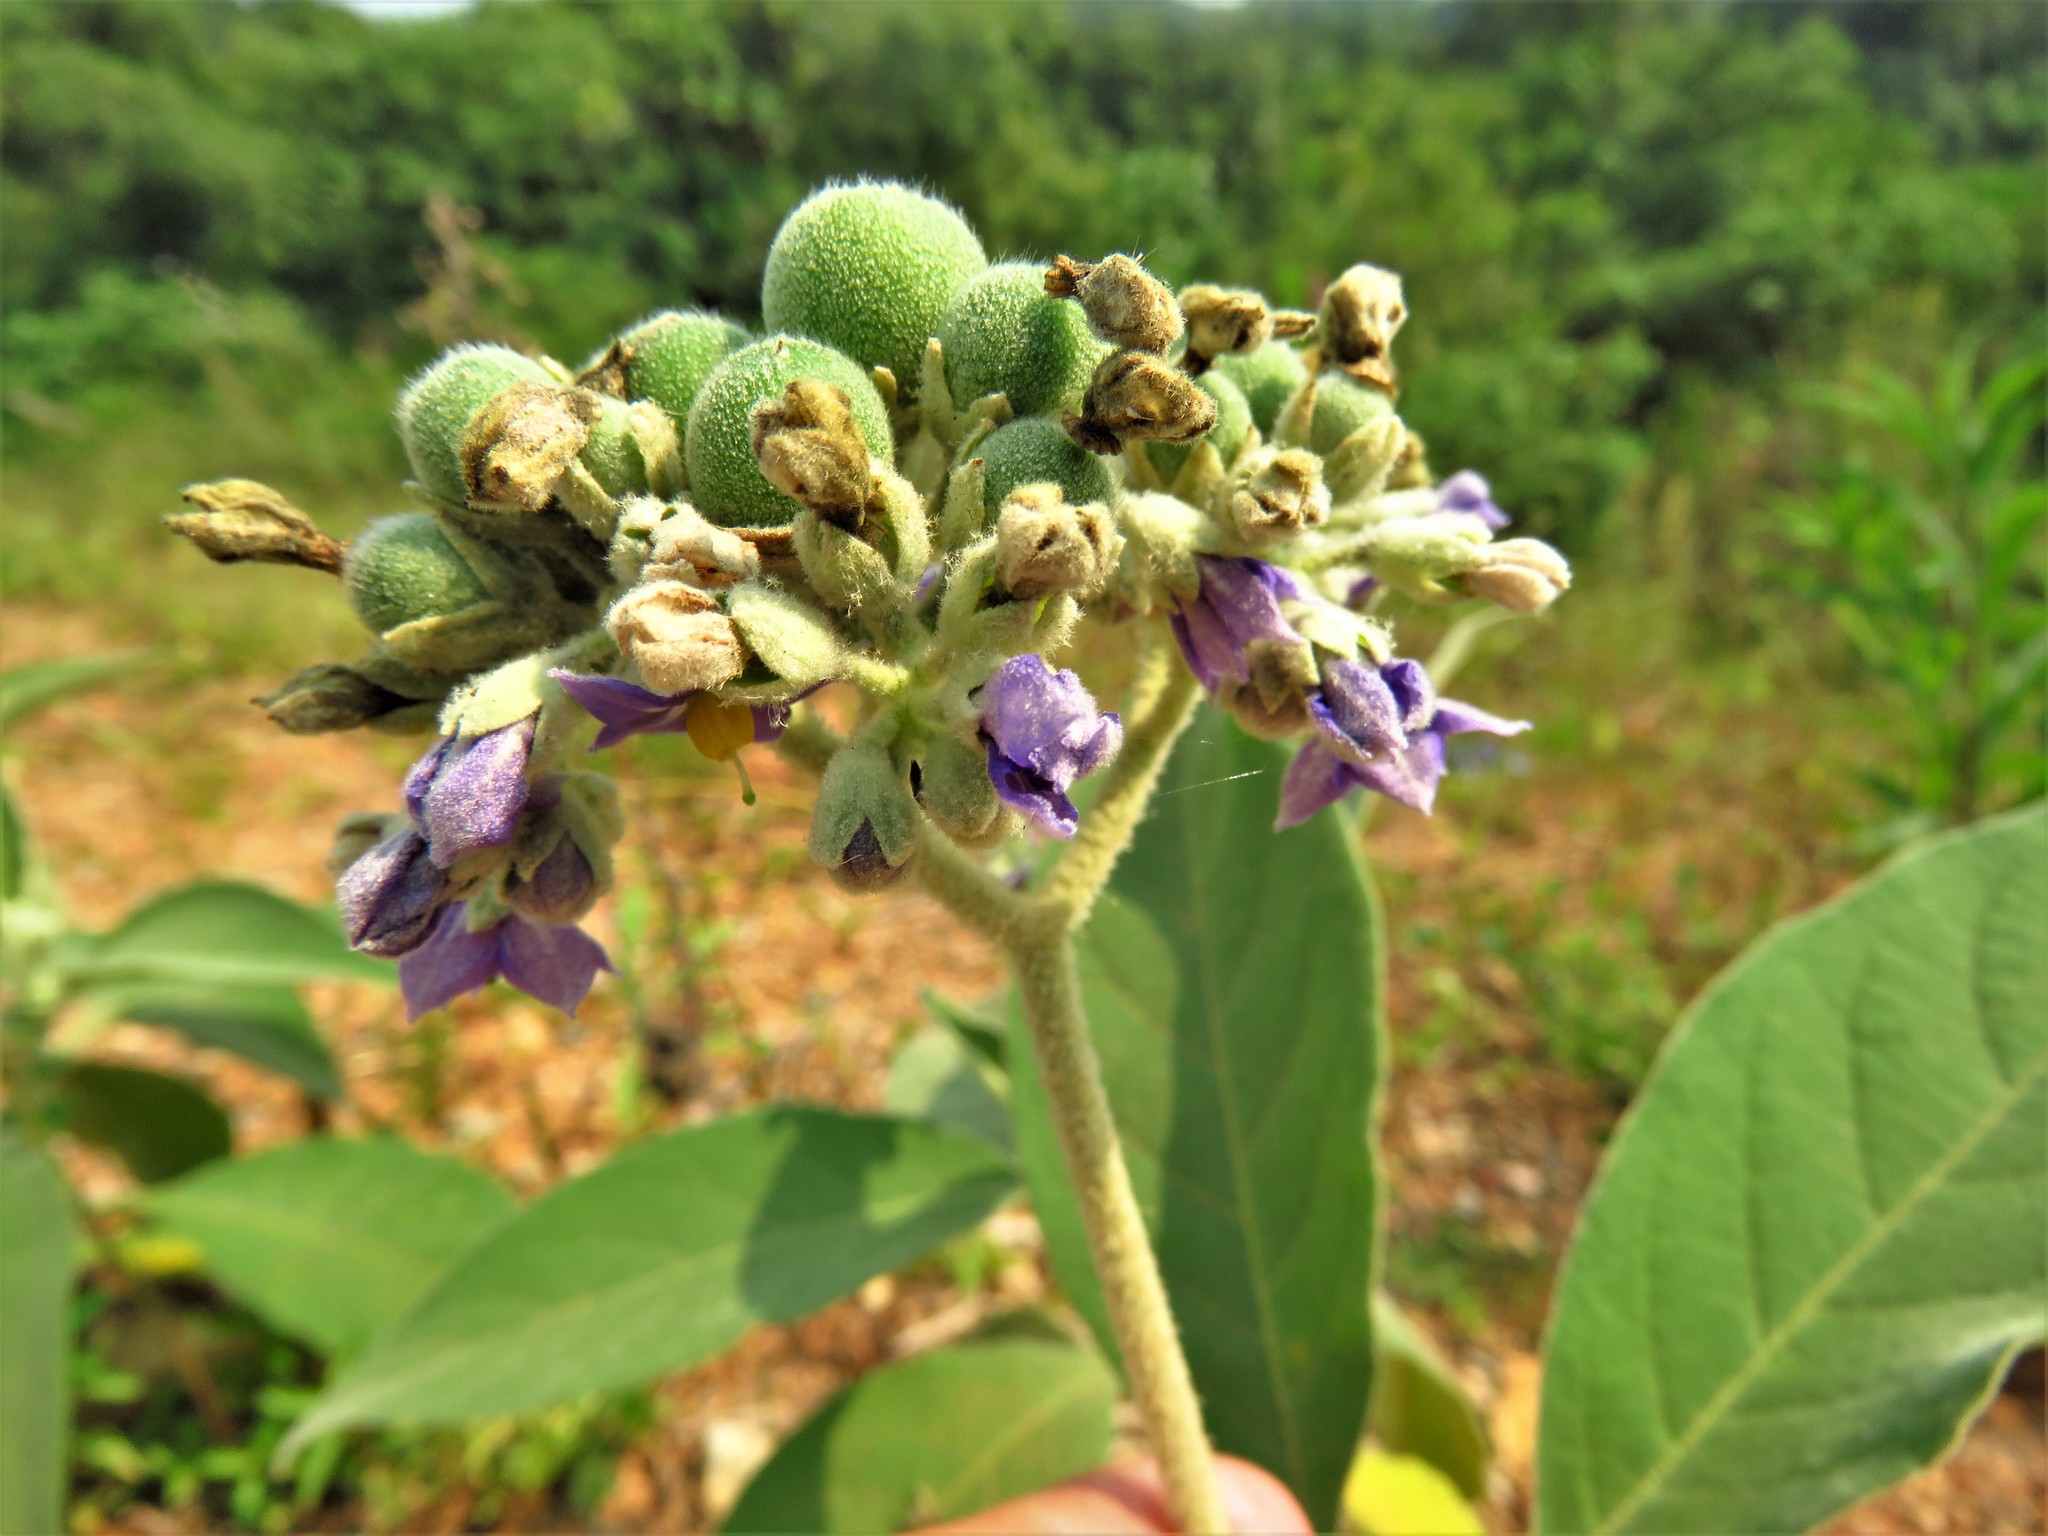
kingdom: Plantae
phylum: Tracheophyta
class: Magnoliopsida
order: Solanales
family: Solanaceae
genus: Solanum
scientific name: Solanum mauritianum
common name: Earleaf nightshade
